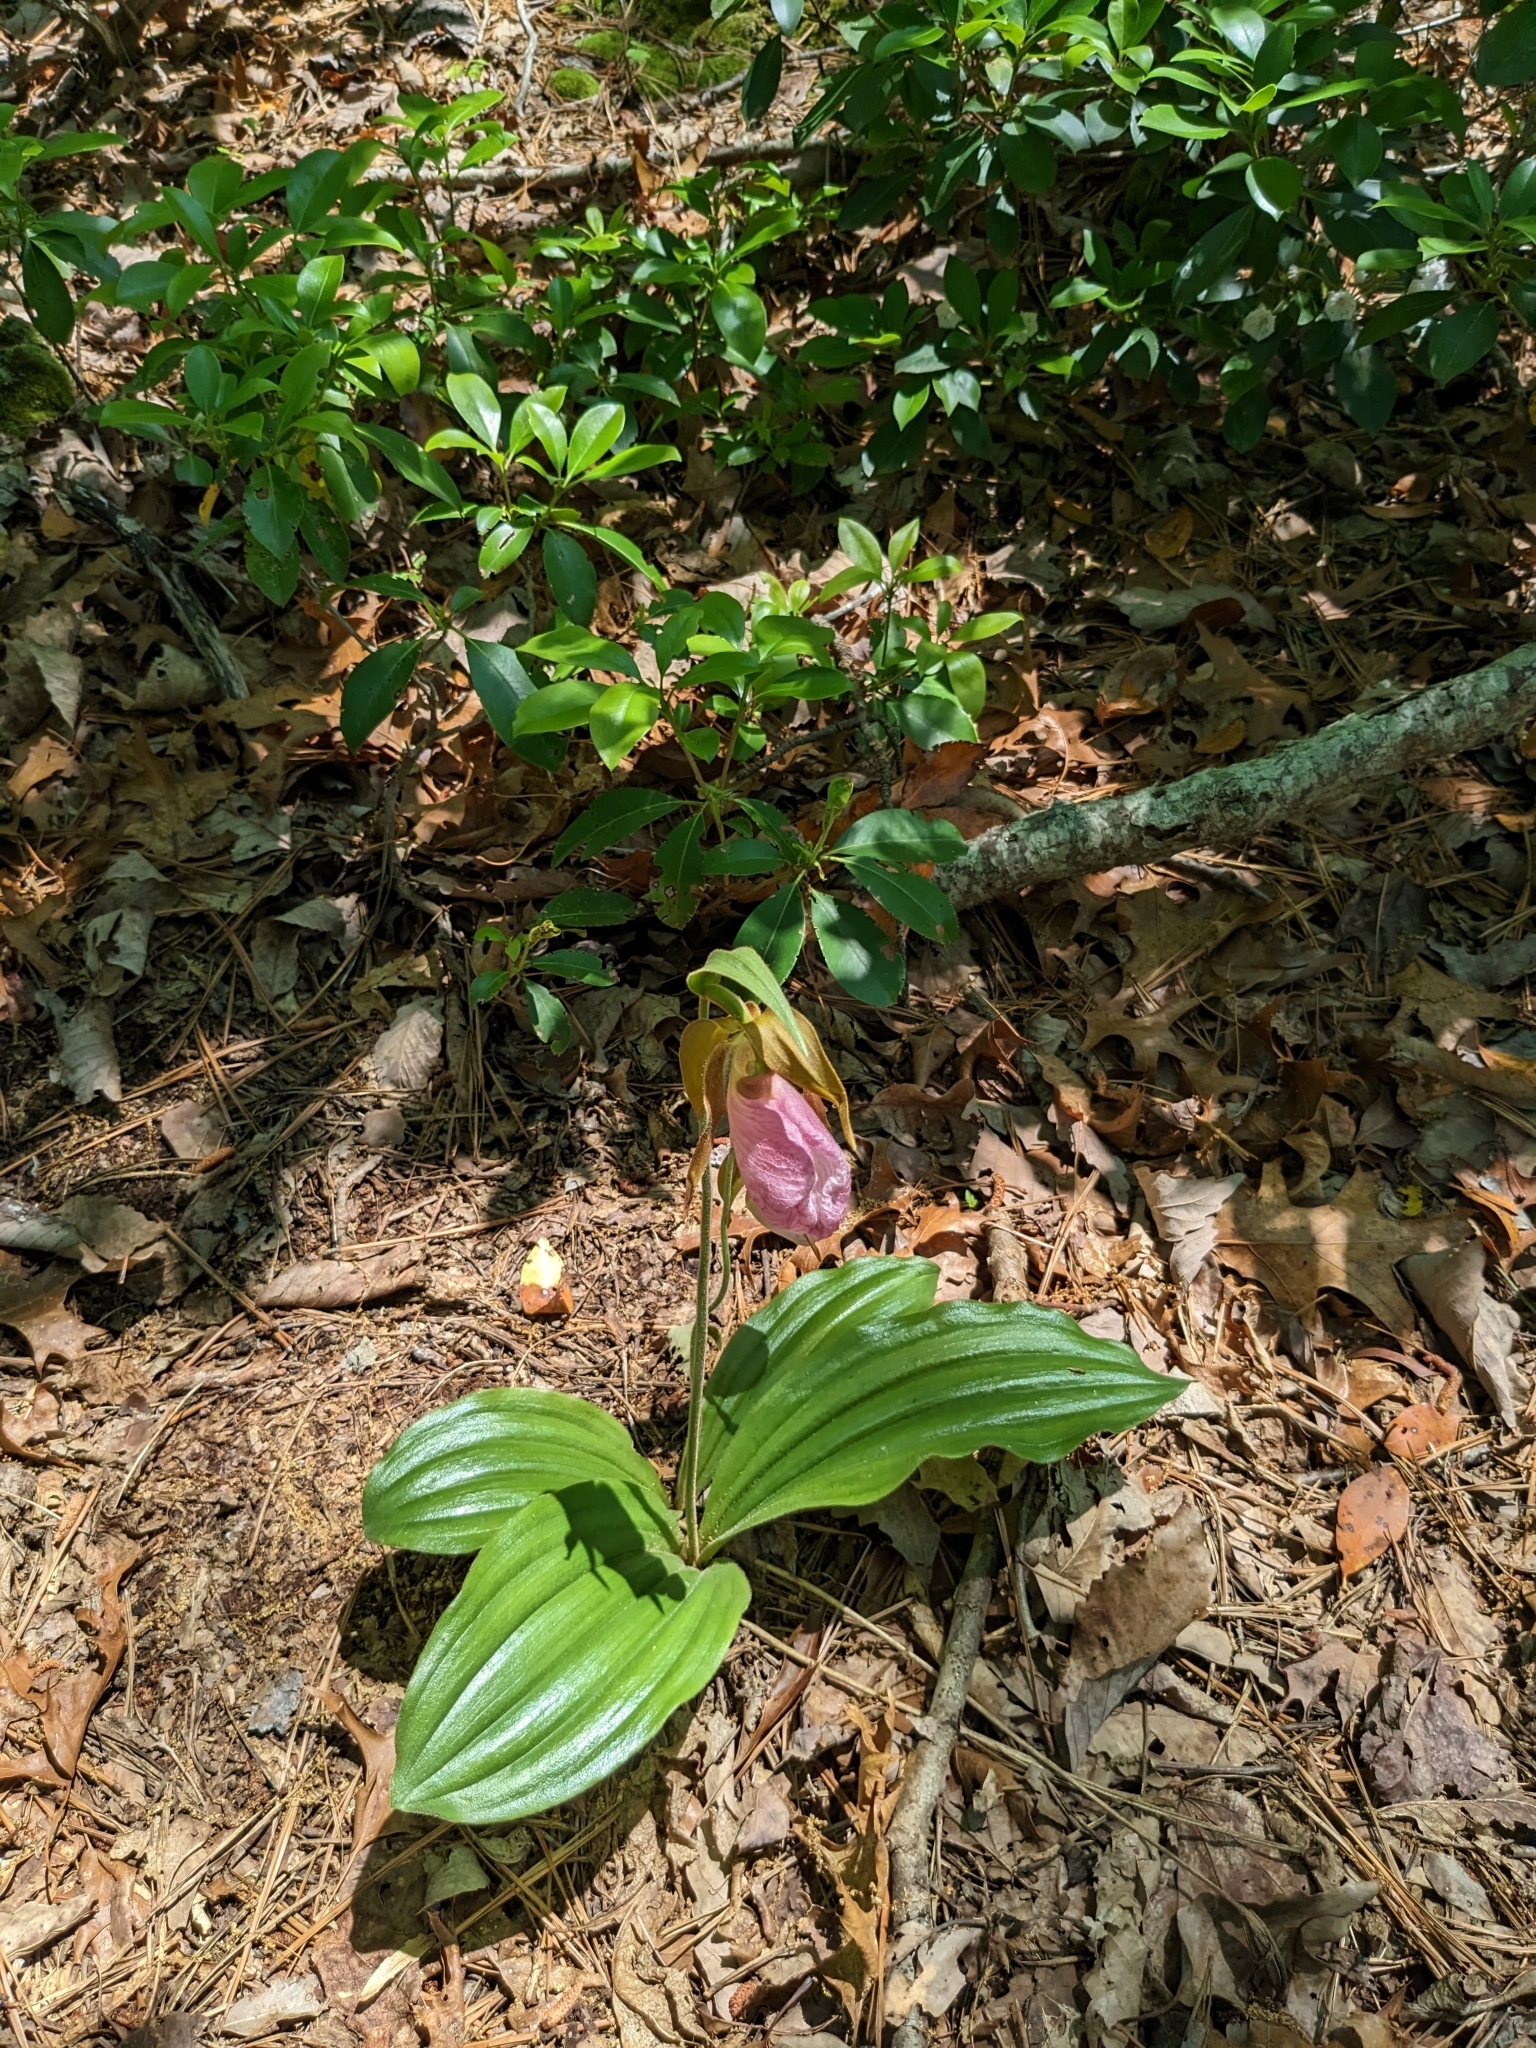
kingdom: Plantae
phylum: Tracheophyta
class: Liliopsida
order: Asparagales
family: Orchidaceae
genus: Cypripedium
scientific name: Cypripedium acaule
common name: Pink lady's-slipper
